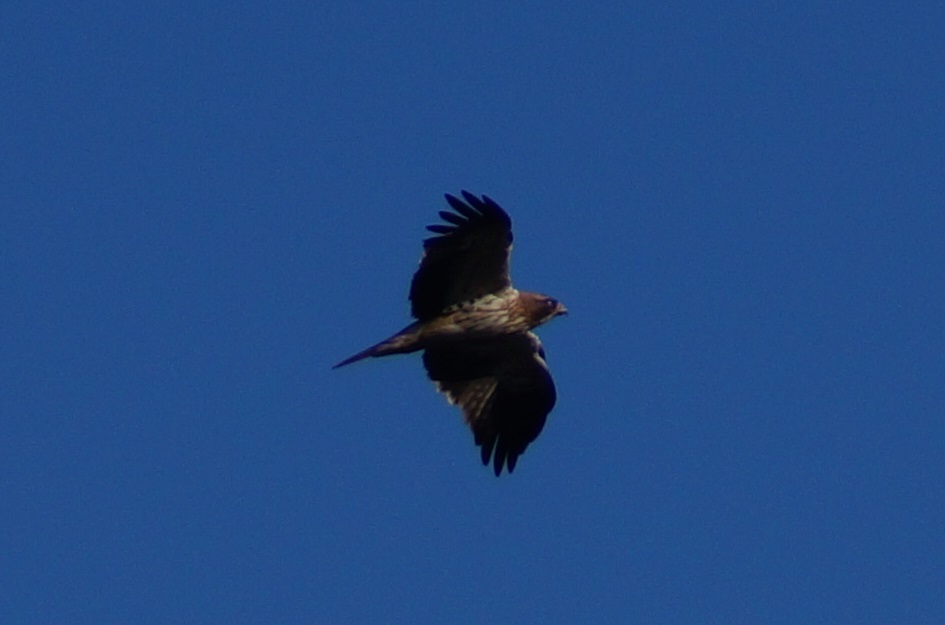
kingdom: Animalia
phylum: Chordata
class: Aves
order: Accipitriformes
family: Accipitridae
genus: Hieraaetus
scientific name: Hieraaetus pennatus
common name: Booted eagle
